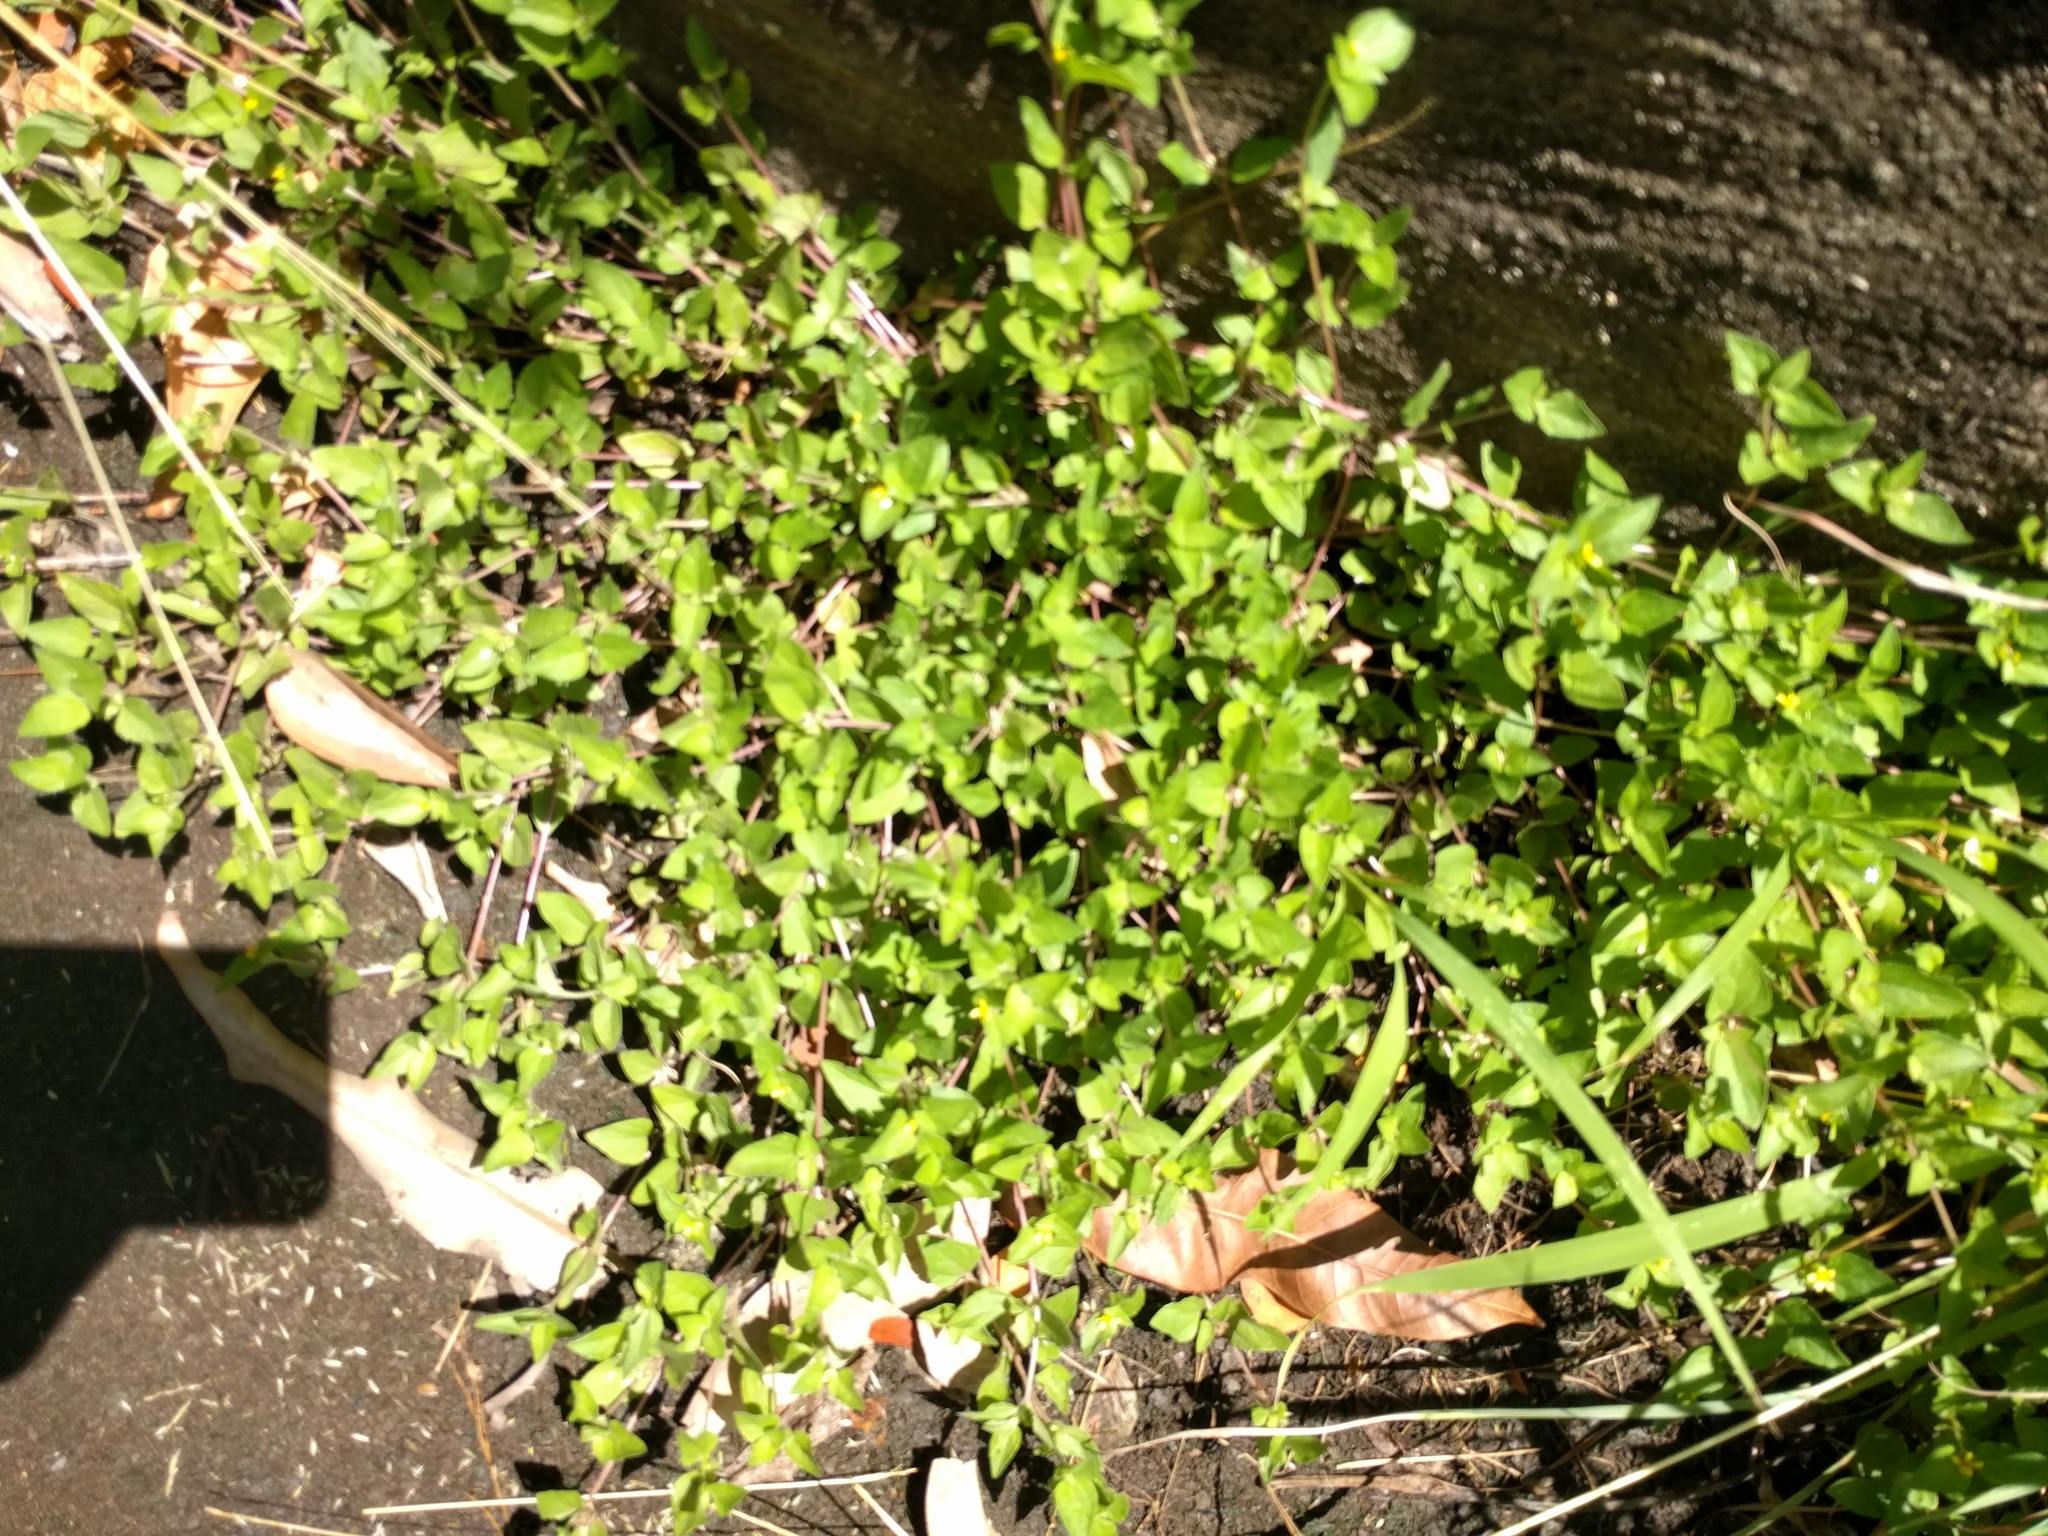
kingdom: Plantae
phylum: Tracheophyta
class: Magnoliopsida
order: Asterales
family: Asteraceae
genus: Calyptocarpus
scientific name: Calyptocarpus vialis
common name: Straggler daisy
